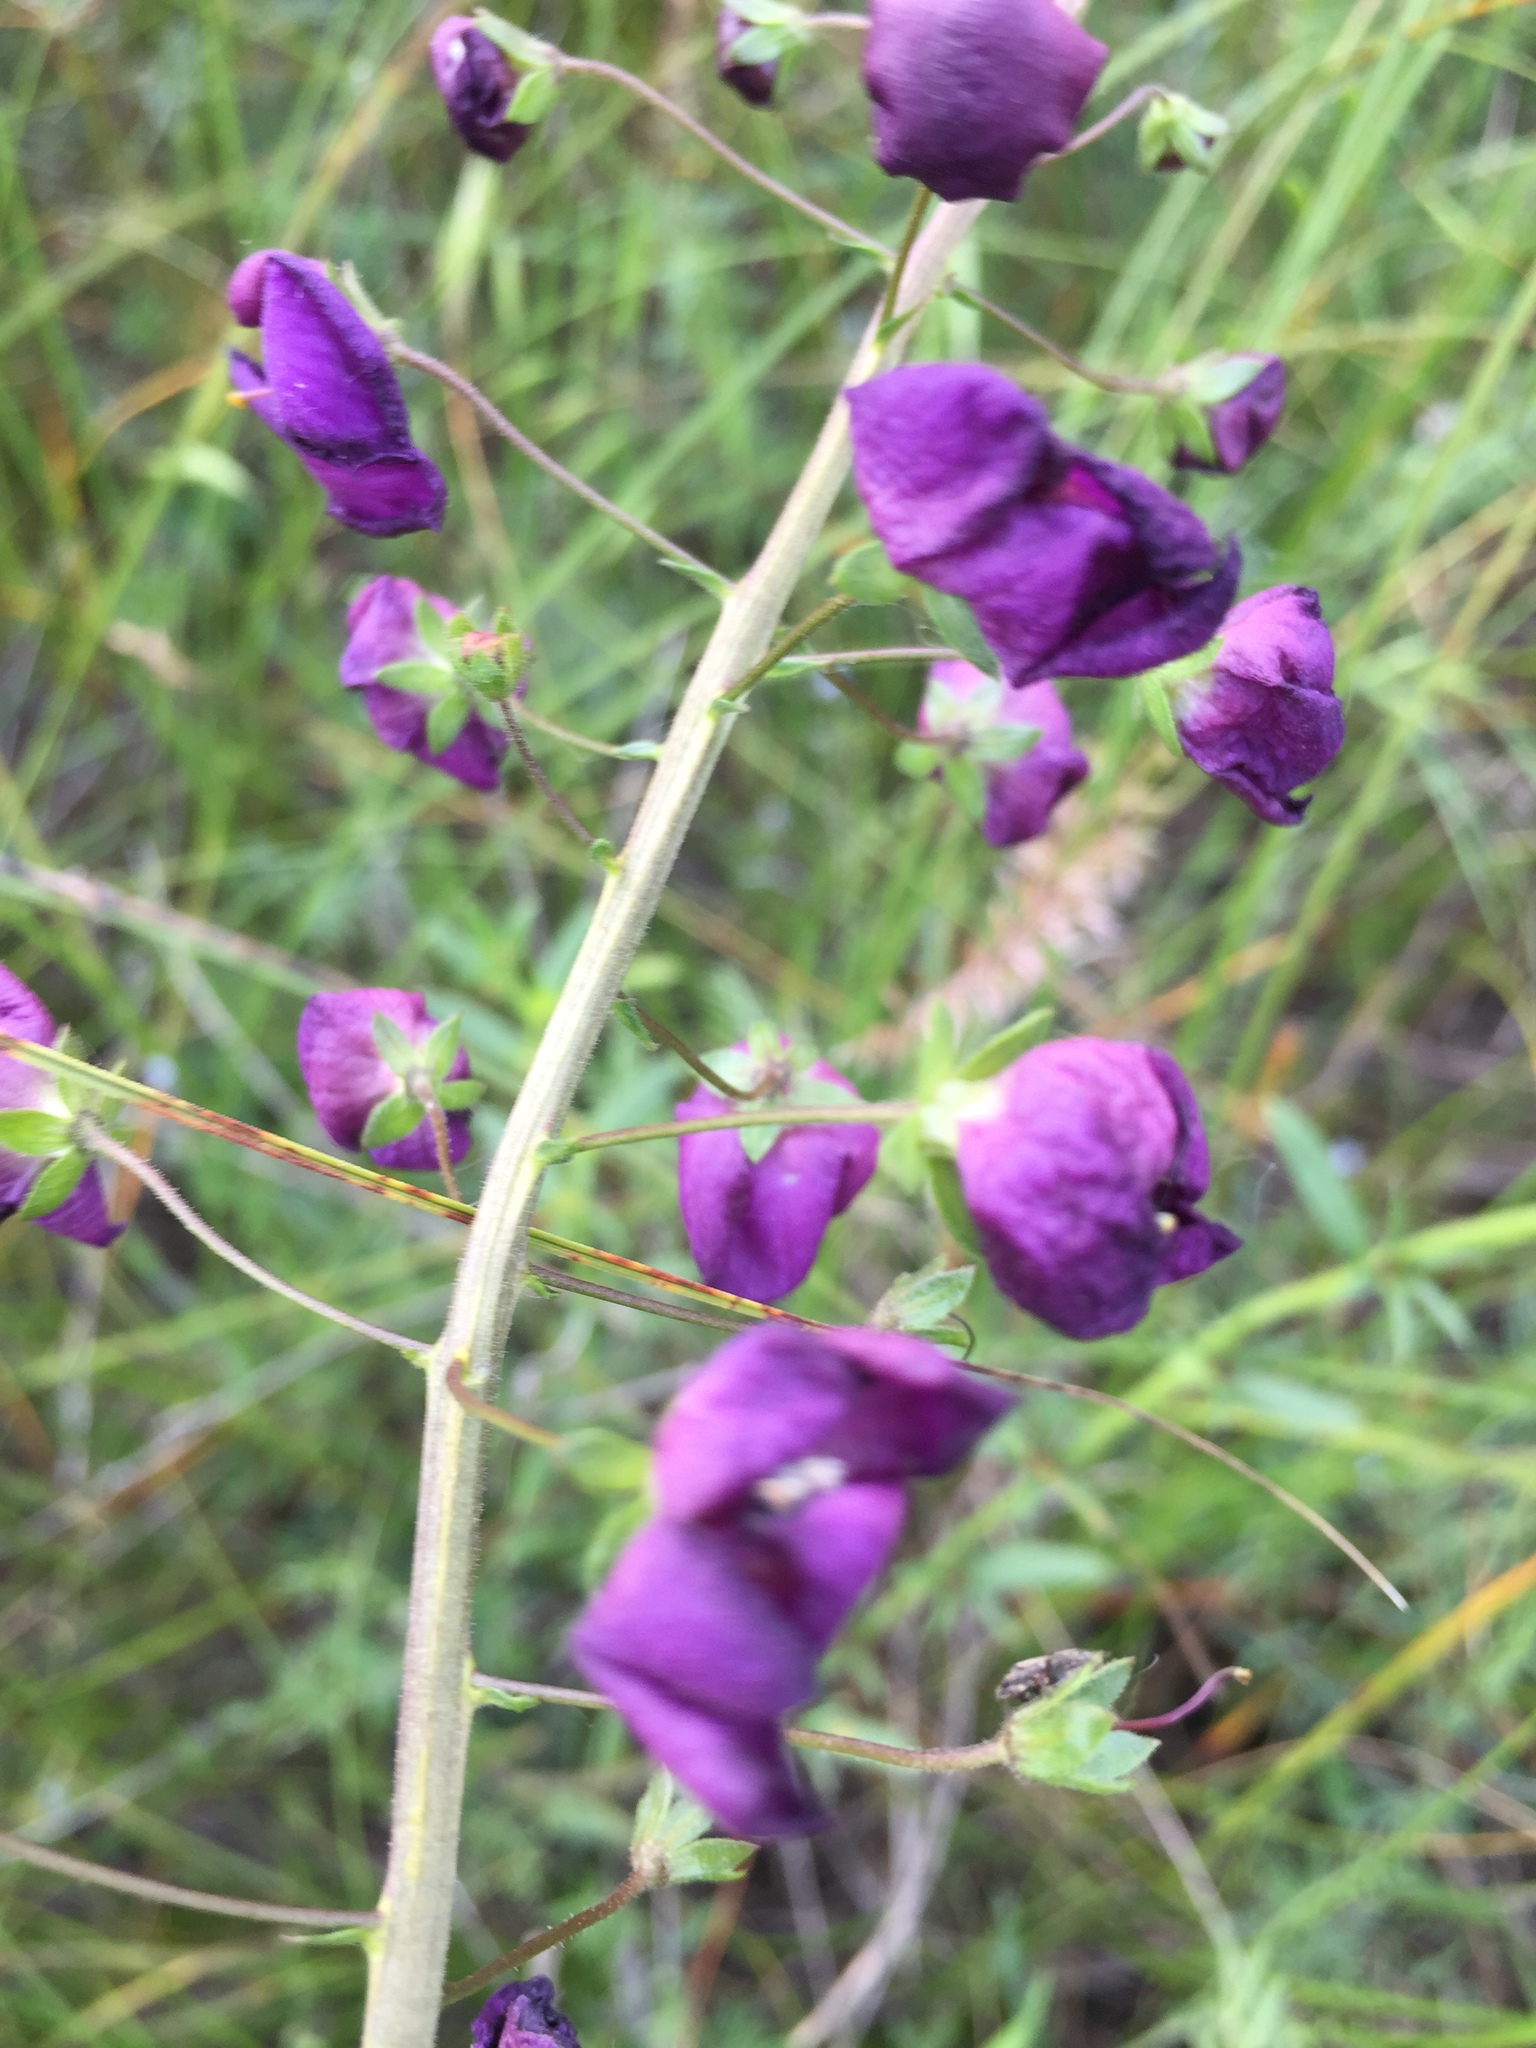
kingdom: Plantae
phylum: Tracheophyta
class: Magnoliopsida
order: Lamiales
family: Scrophulariaceae
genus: Verbascum
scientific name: Verbascum phoeniceum
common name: Purple mullein
